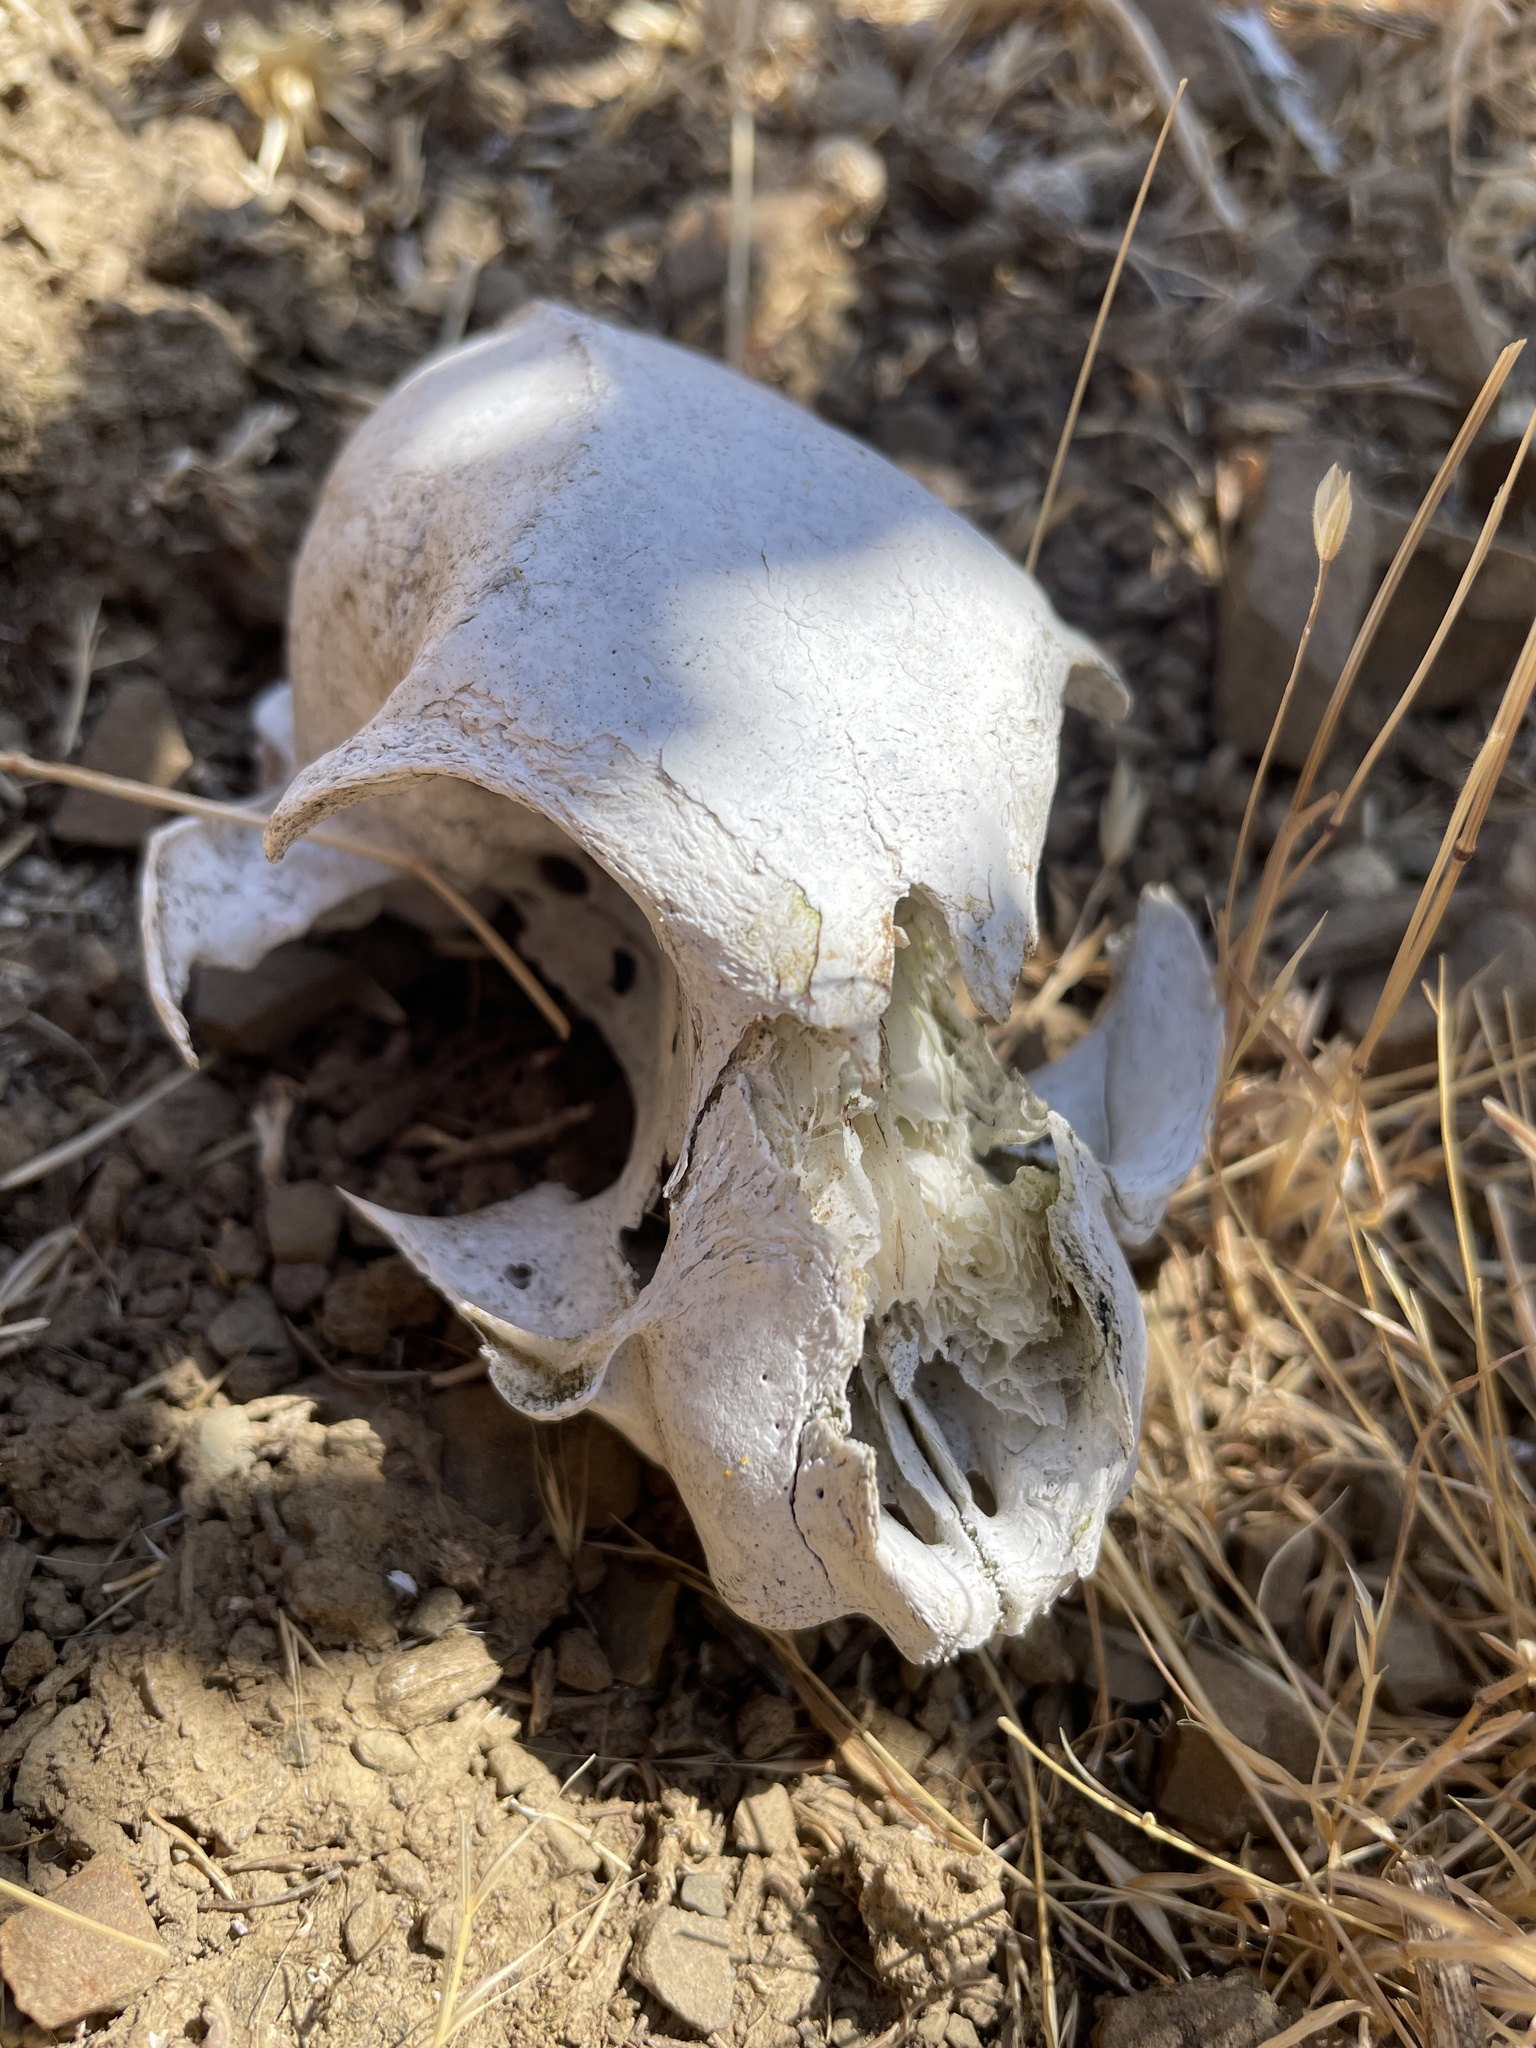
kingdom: Animalia
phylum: Chordata
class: Mammalia
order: Carnivora
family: Felidae
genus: Felis
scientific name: Felis catus
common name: Domestic cat
